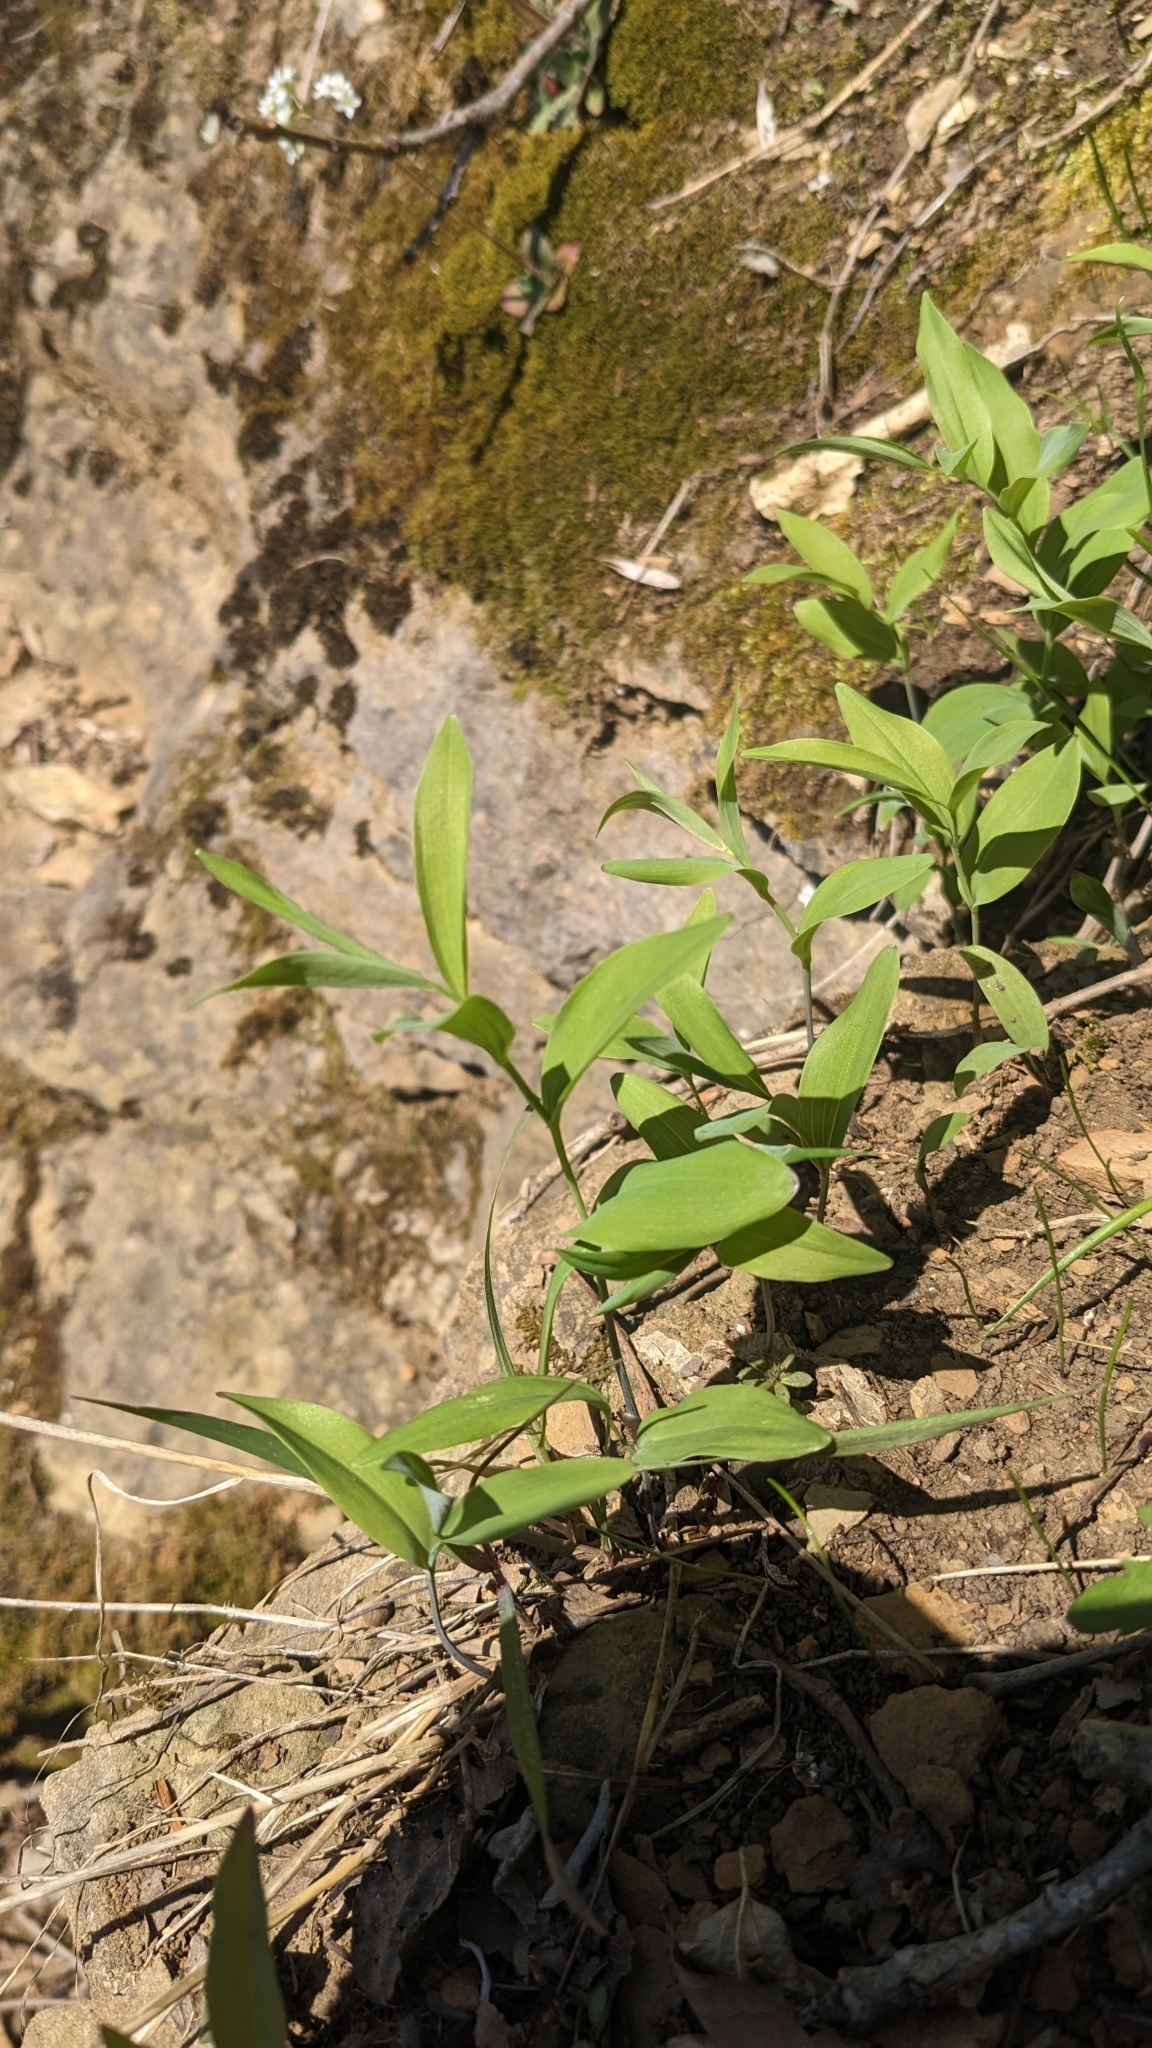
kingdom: Plantae
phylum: Tracheophyta
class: Liliopsida
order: Asparagales
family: Asparagaceae
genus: Polygonatum
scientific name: Polygonatum biflorum
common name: American solomon's-seal
